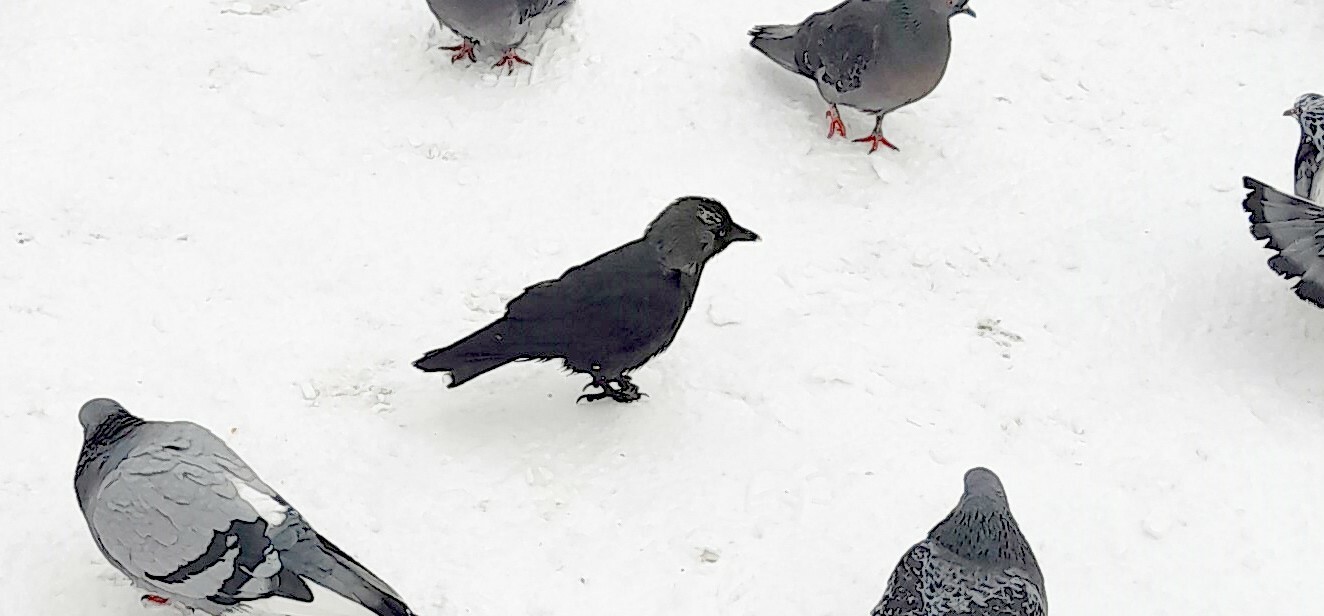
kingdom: Animalia
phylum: Chordata
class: Aves
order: Passeriformes
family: Corvidae
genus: Coloeus
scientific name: Coloeus monedula
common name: Western jackdaw
